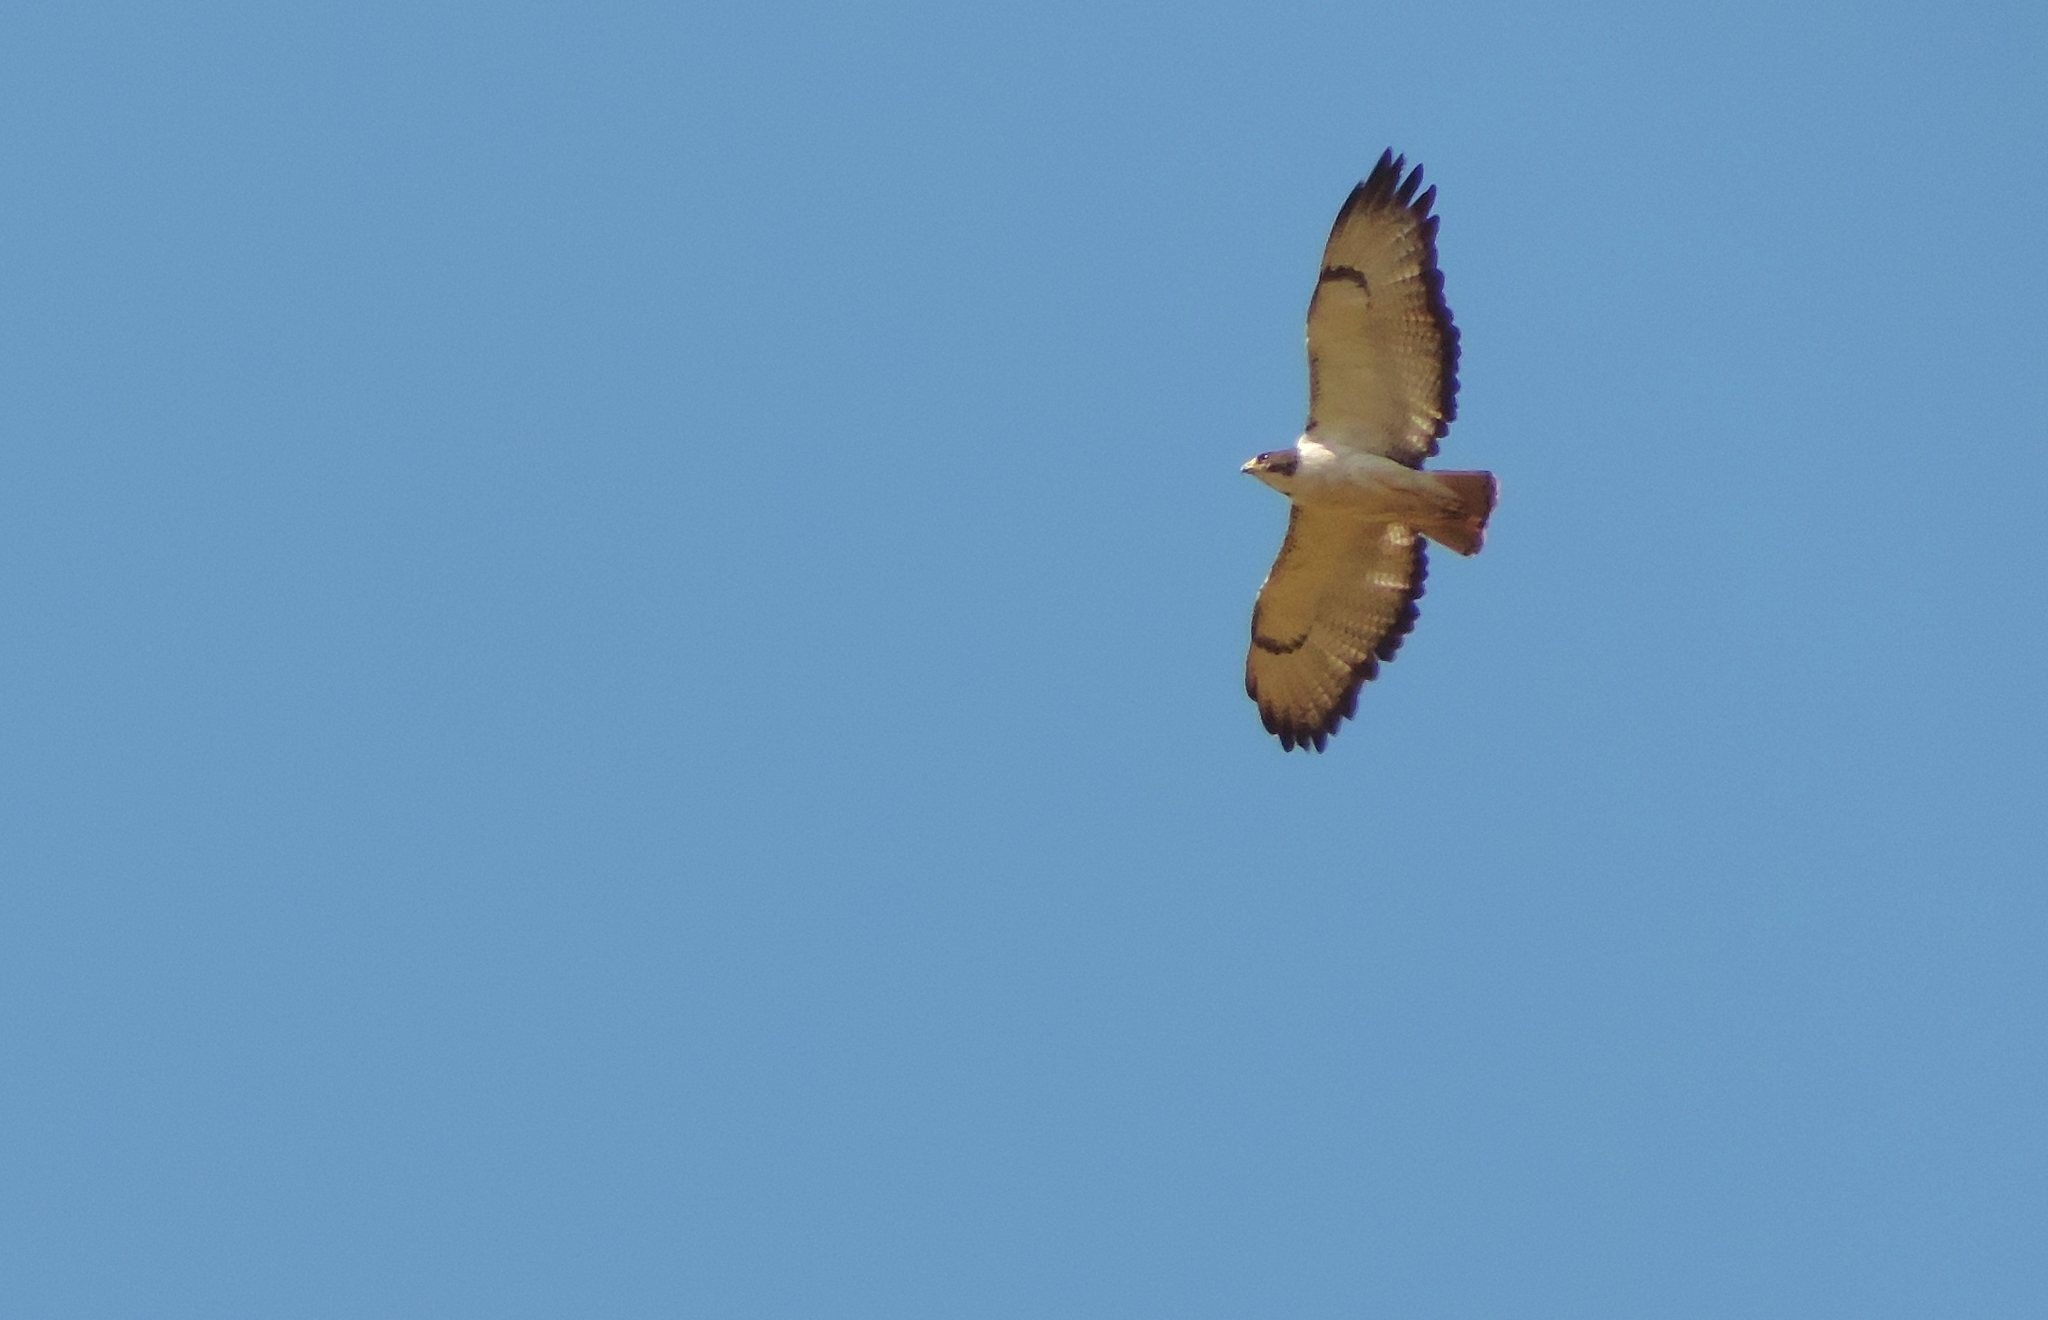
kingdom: Animalia
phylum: Chordata
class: Aves
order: Accipitriformes
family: Accipitridae
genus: Buteo
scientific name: Buteo augur
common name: Augur buzzard
